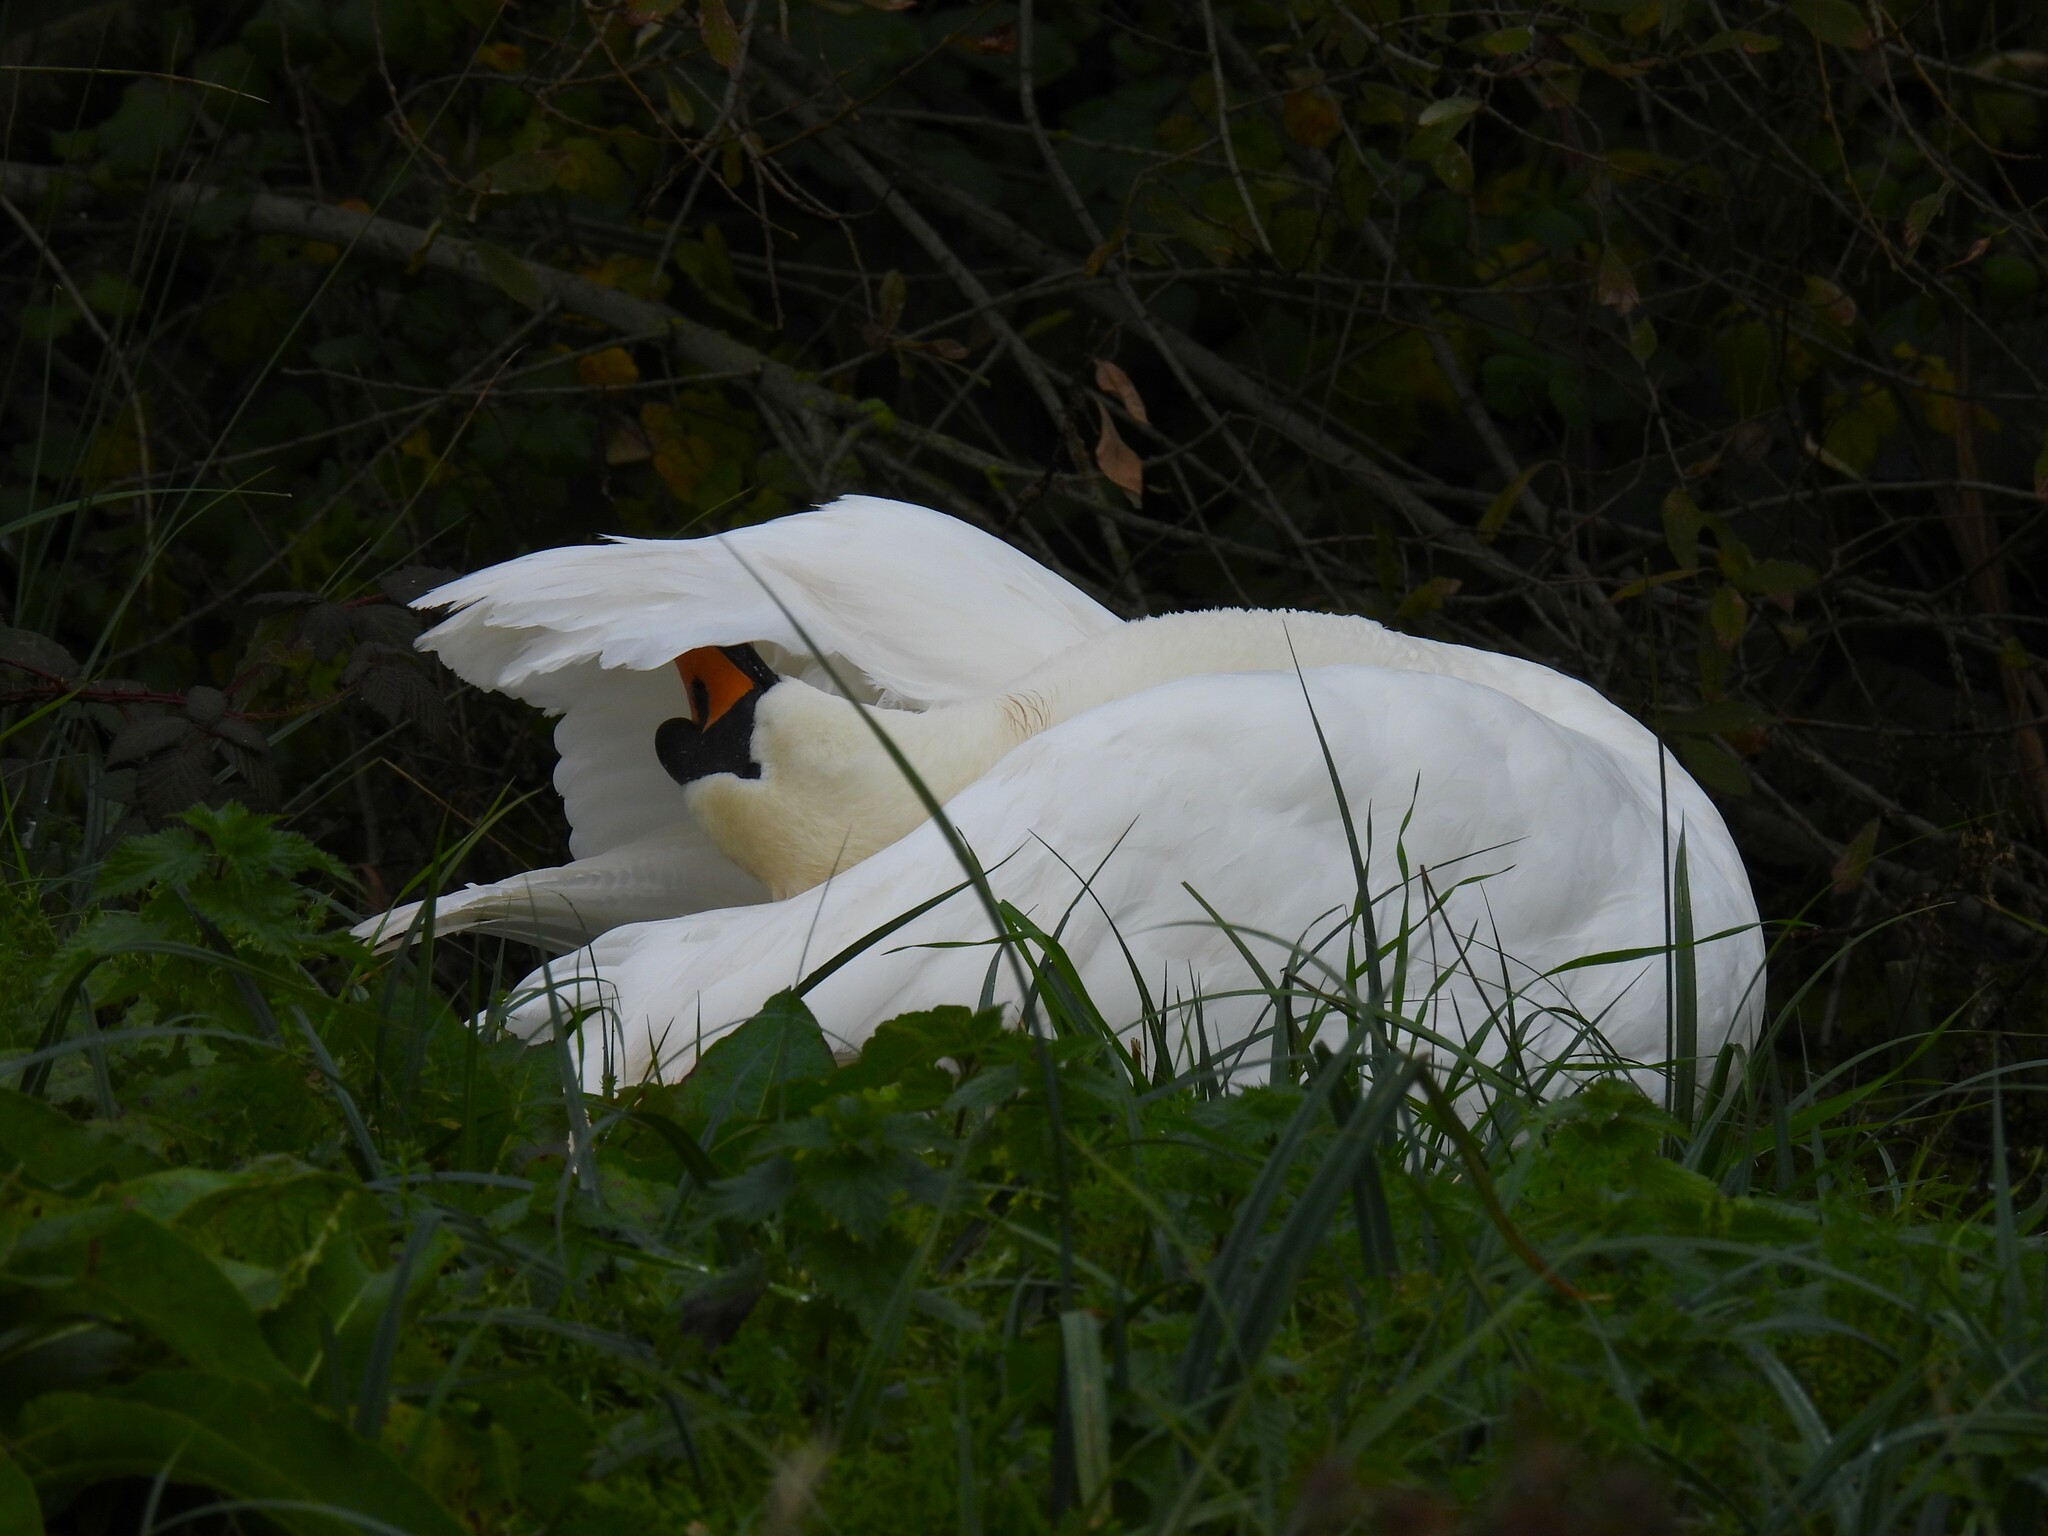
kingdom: Animalia
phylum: Chordata
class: Aves
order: Anseriformes
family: Anatidae
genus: Cygnus
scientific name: Cygnus olor
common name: Mute swan
